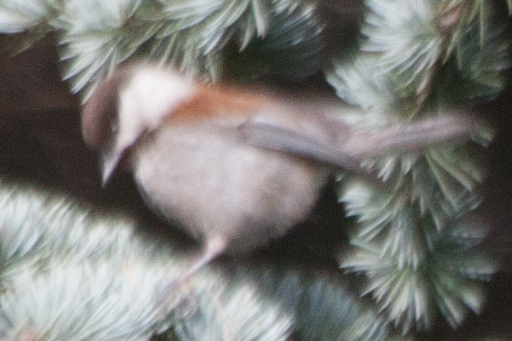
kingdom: Animalia
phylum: Chordata
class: Aves
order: Passeriformes
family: Paridae
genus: Poecile
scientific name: Poecile rufescens
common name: Chestnut-backed chickadee
